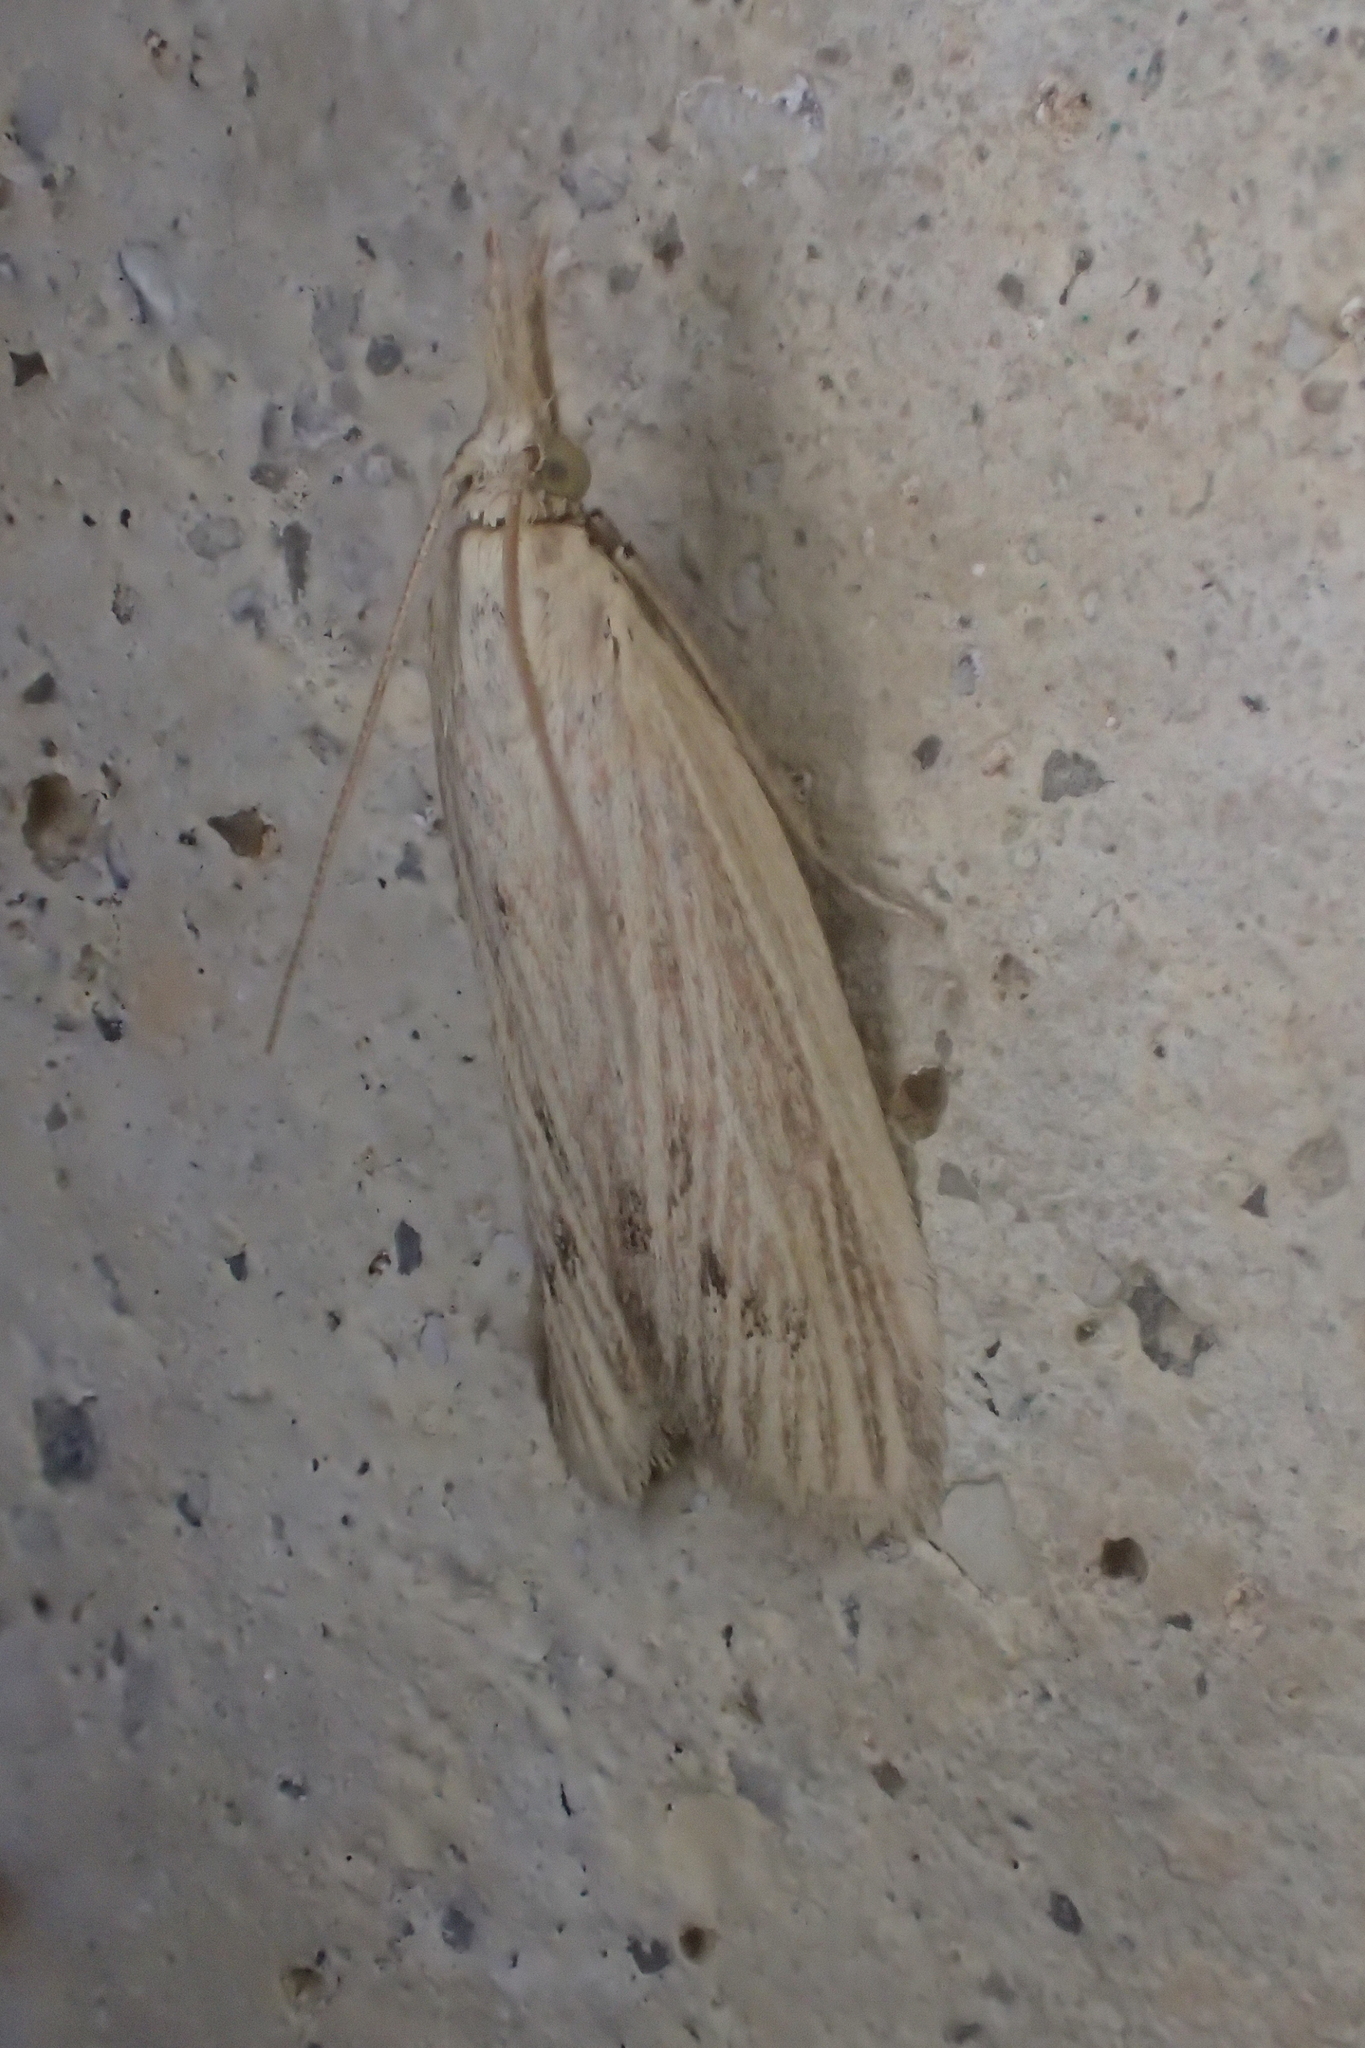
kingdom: Animalia
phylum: Arthropoda
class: Insecta
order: Lepidoptera
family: Pyralidae
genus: Ematheudes
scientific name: Ematheudes punctellus
